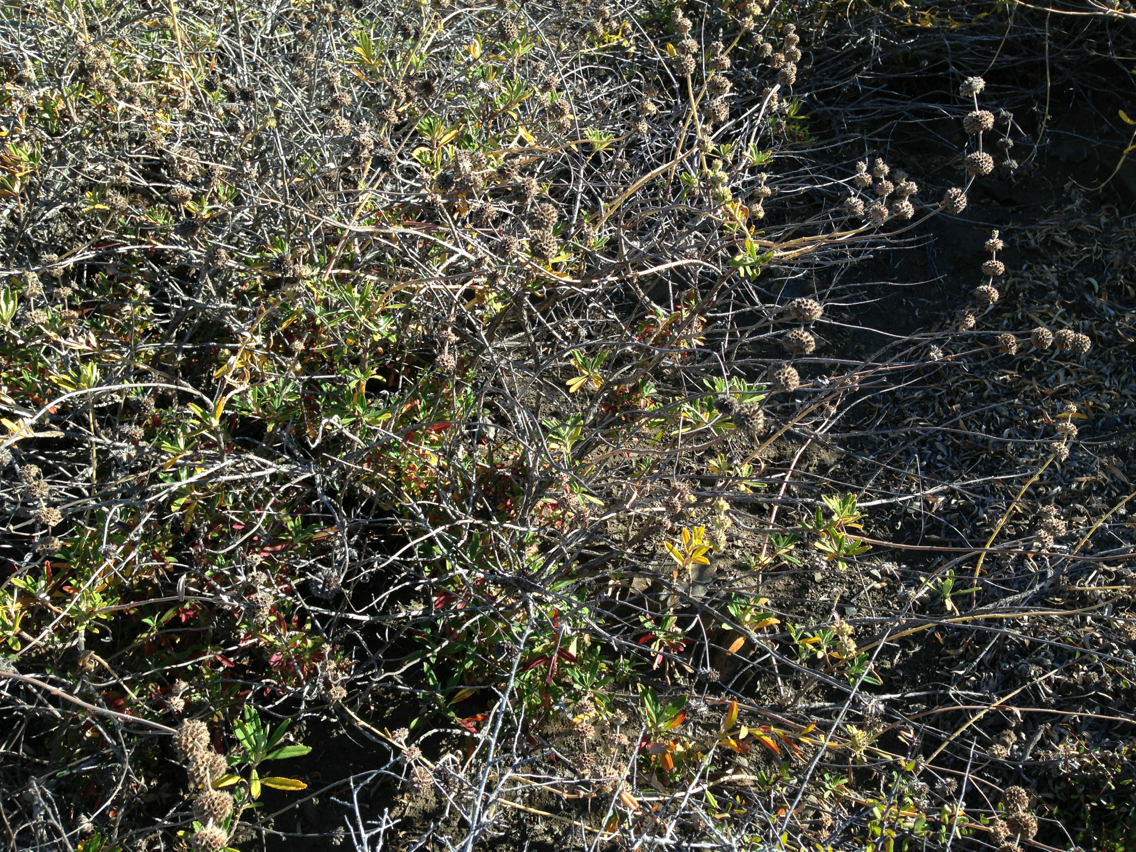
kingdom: Plantae
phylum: Tracheophyta
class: Magnoliopsida
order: Lamiales
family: Lamiaceae
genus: Salvia
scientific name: Salvia mellifera
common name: Black sage
